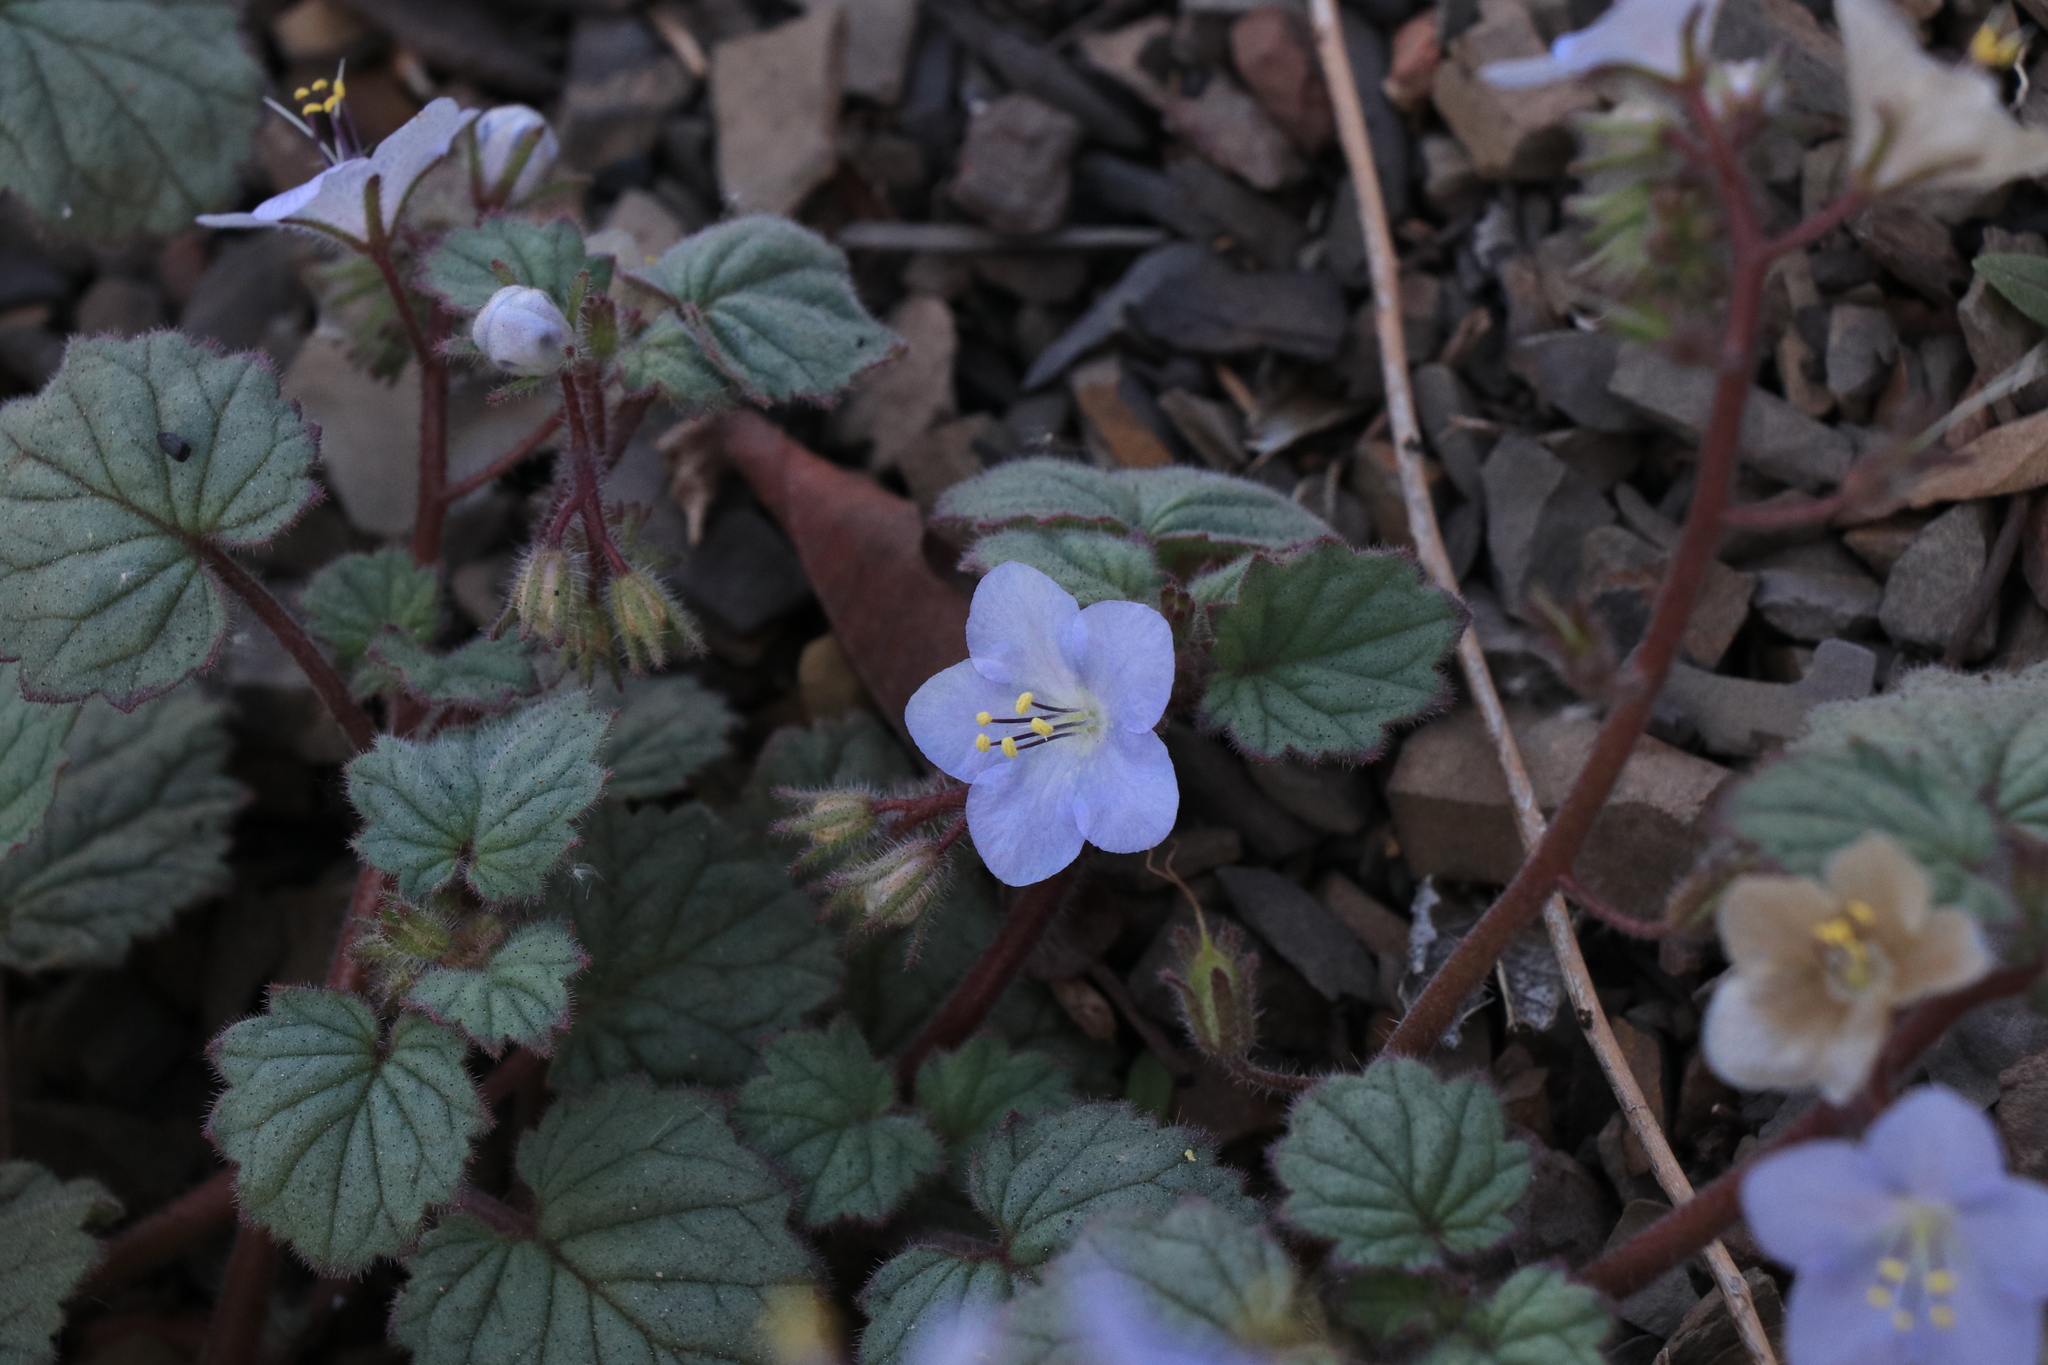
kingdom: Plantae
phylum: Tracheophyta
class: Magnoliopsida
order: Boraginales
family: Hydrophyllaceae
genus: Phacelia
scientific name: Phacelia longipes
